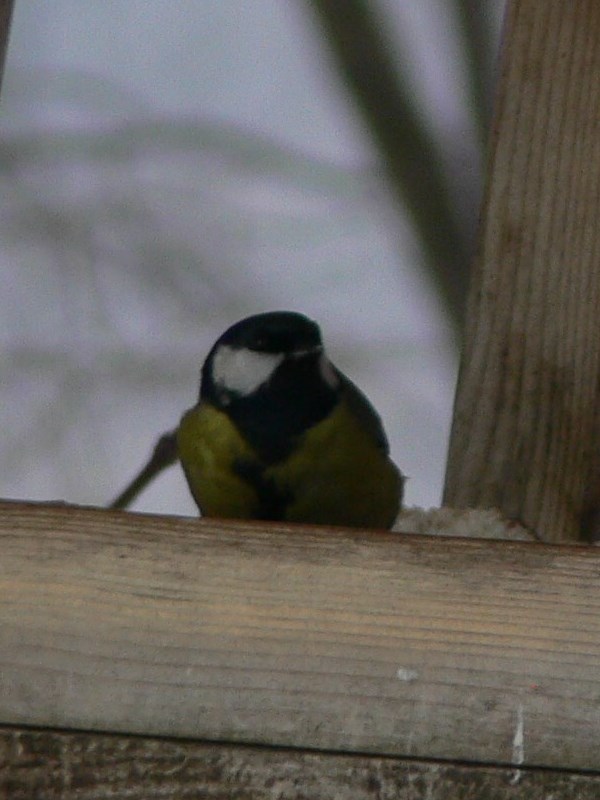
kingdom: Animalia
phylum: Chordata
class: Aves
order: Passeriformes
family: Paridae
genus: Parus
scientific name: Parus major
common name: Great tit
